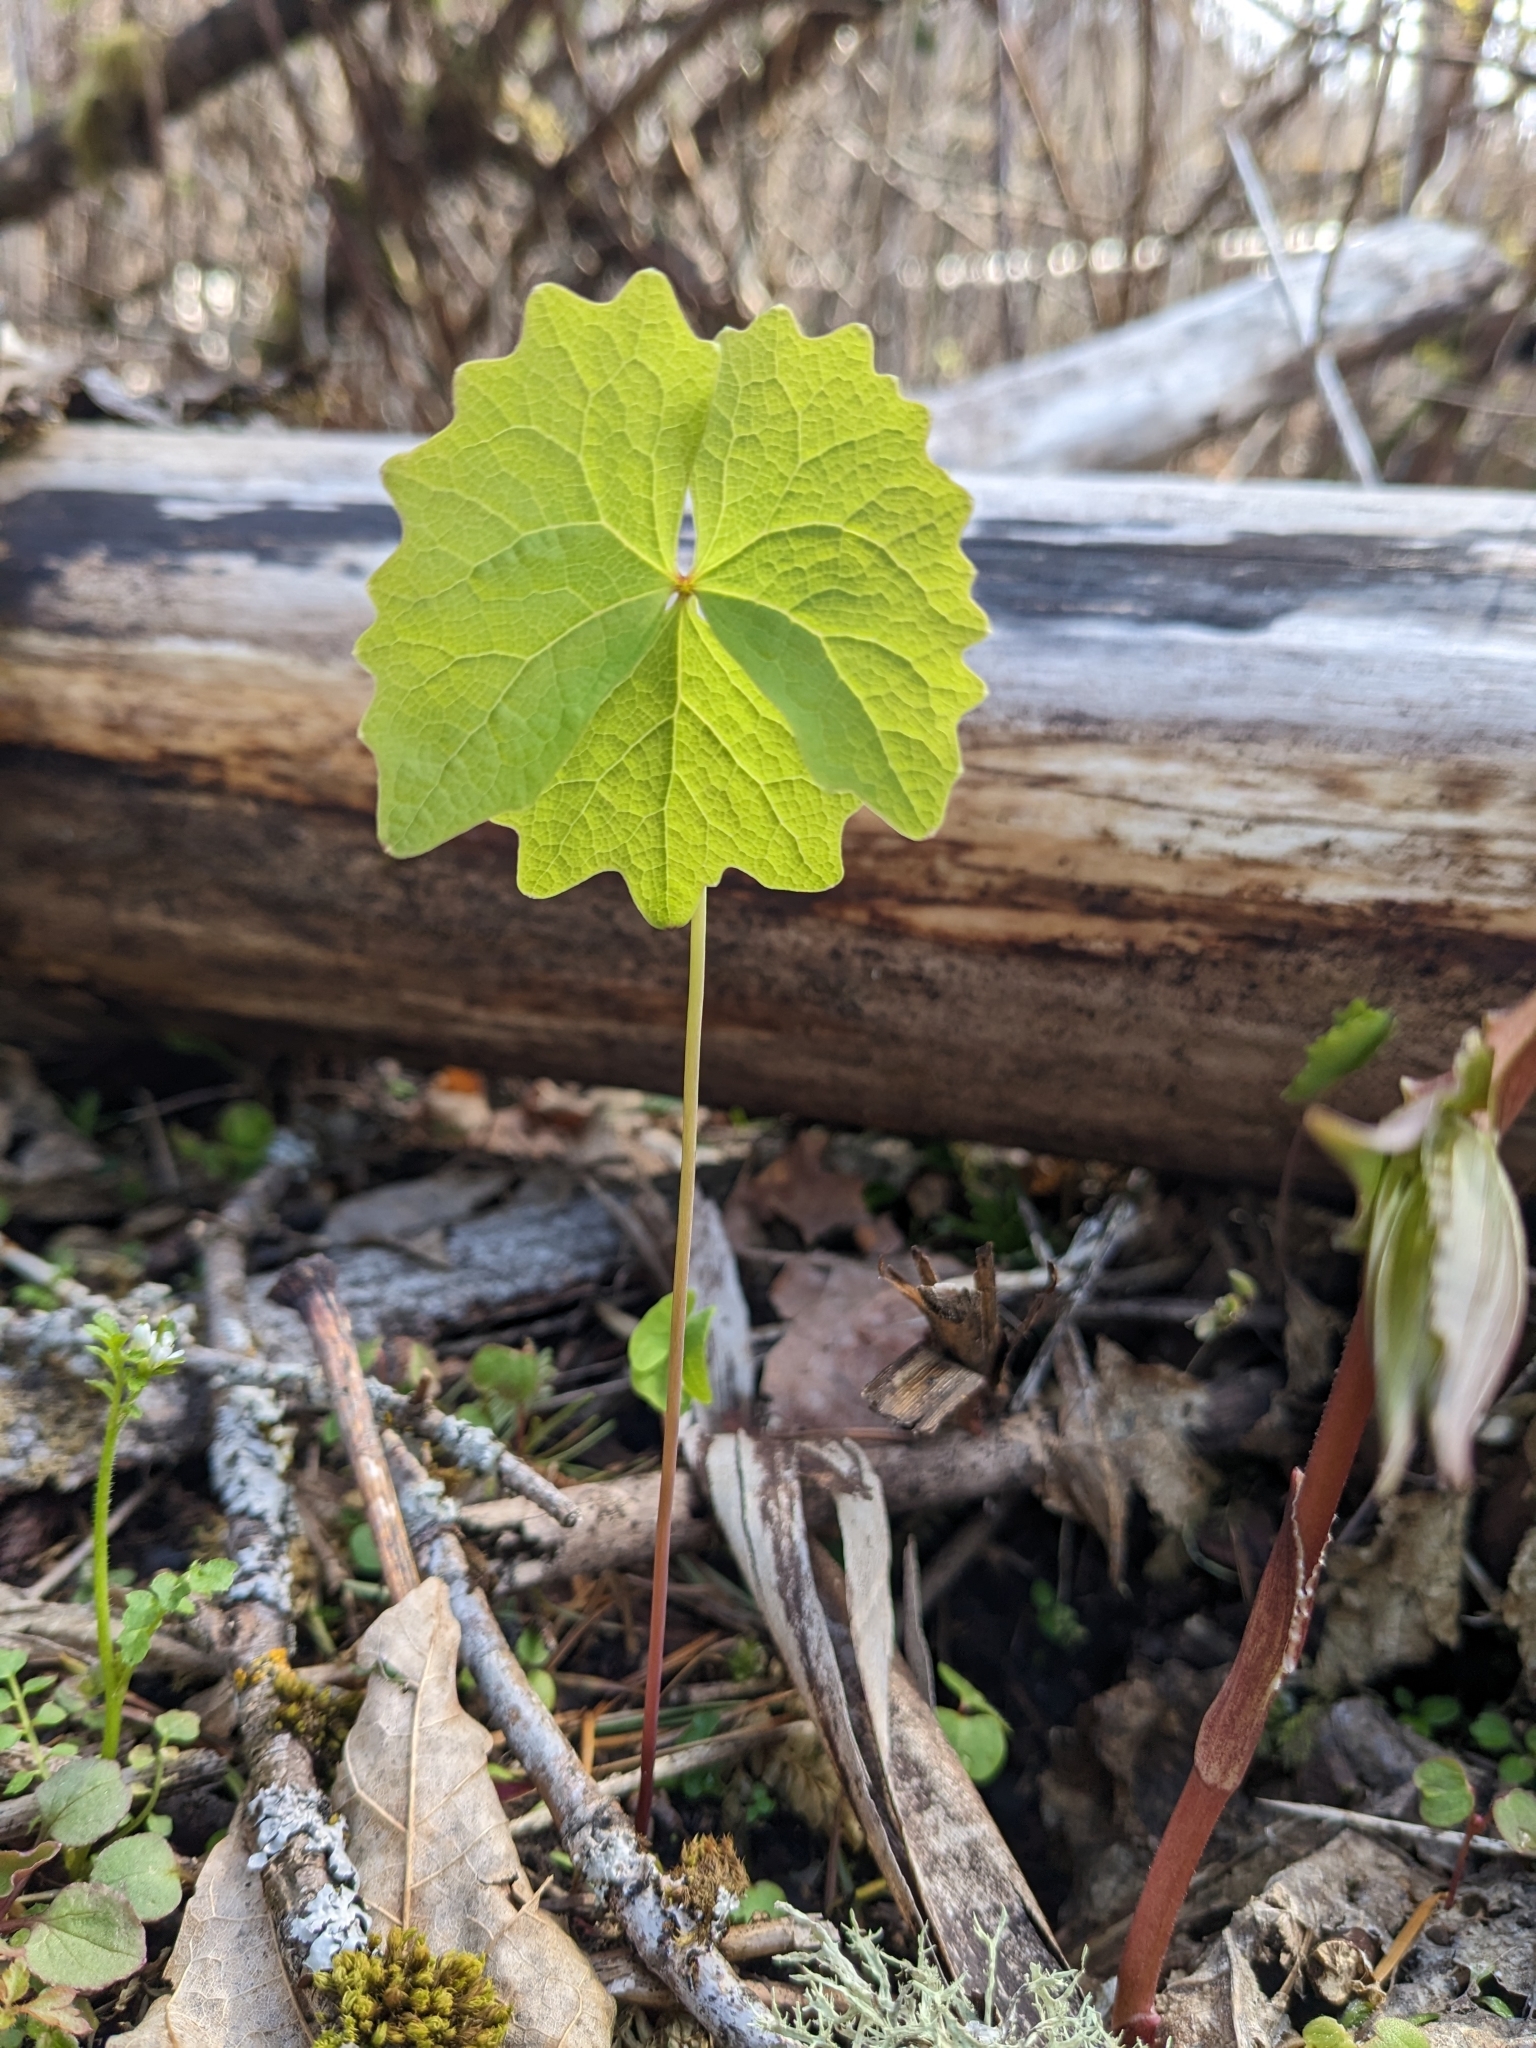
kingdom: Plantae
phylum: Tracheophyta
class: Magnoliopsida
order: Ranunculales
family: Berberidaceae
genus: Achlys
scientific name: Achlys triphylla
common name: Vanilla-leaf
